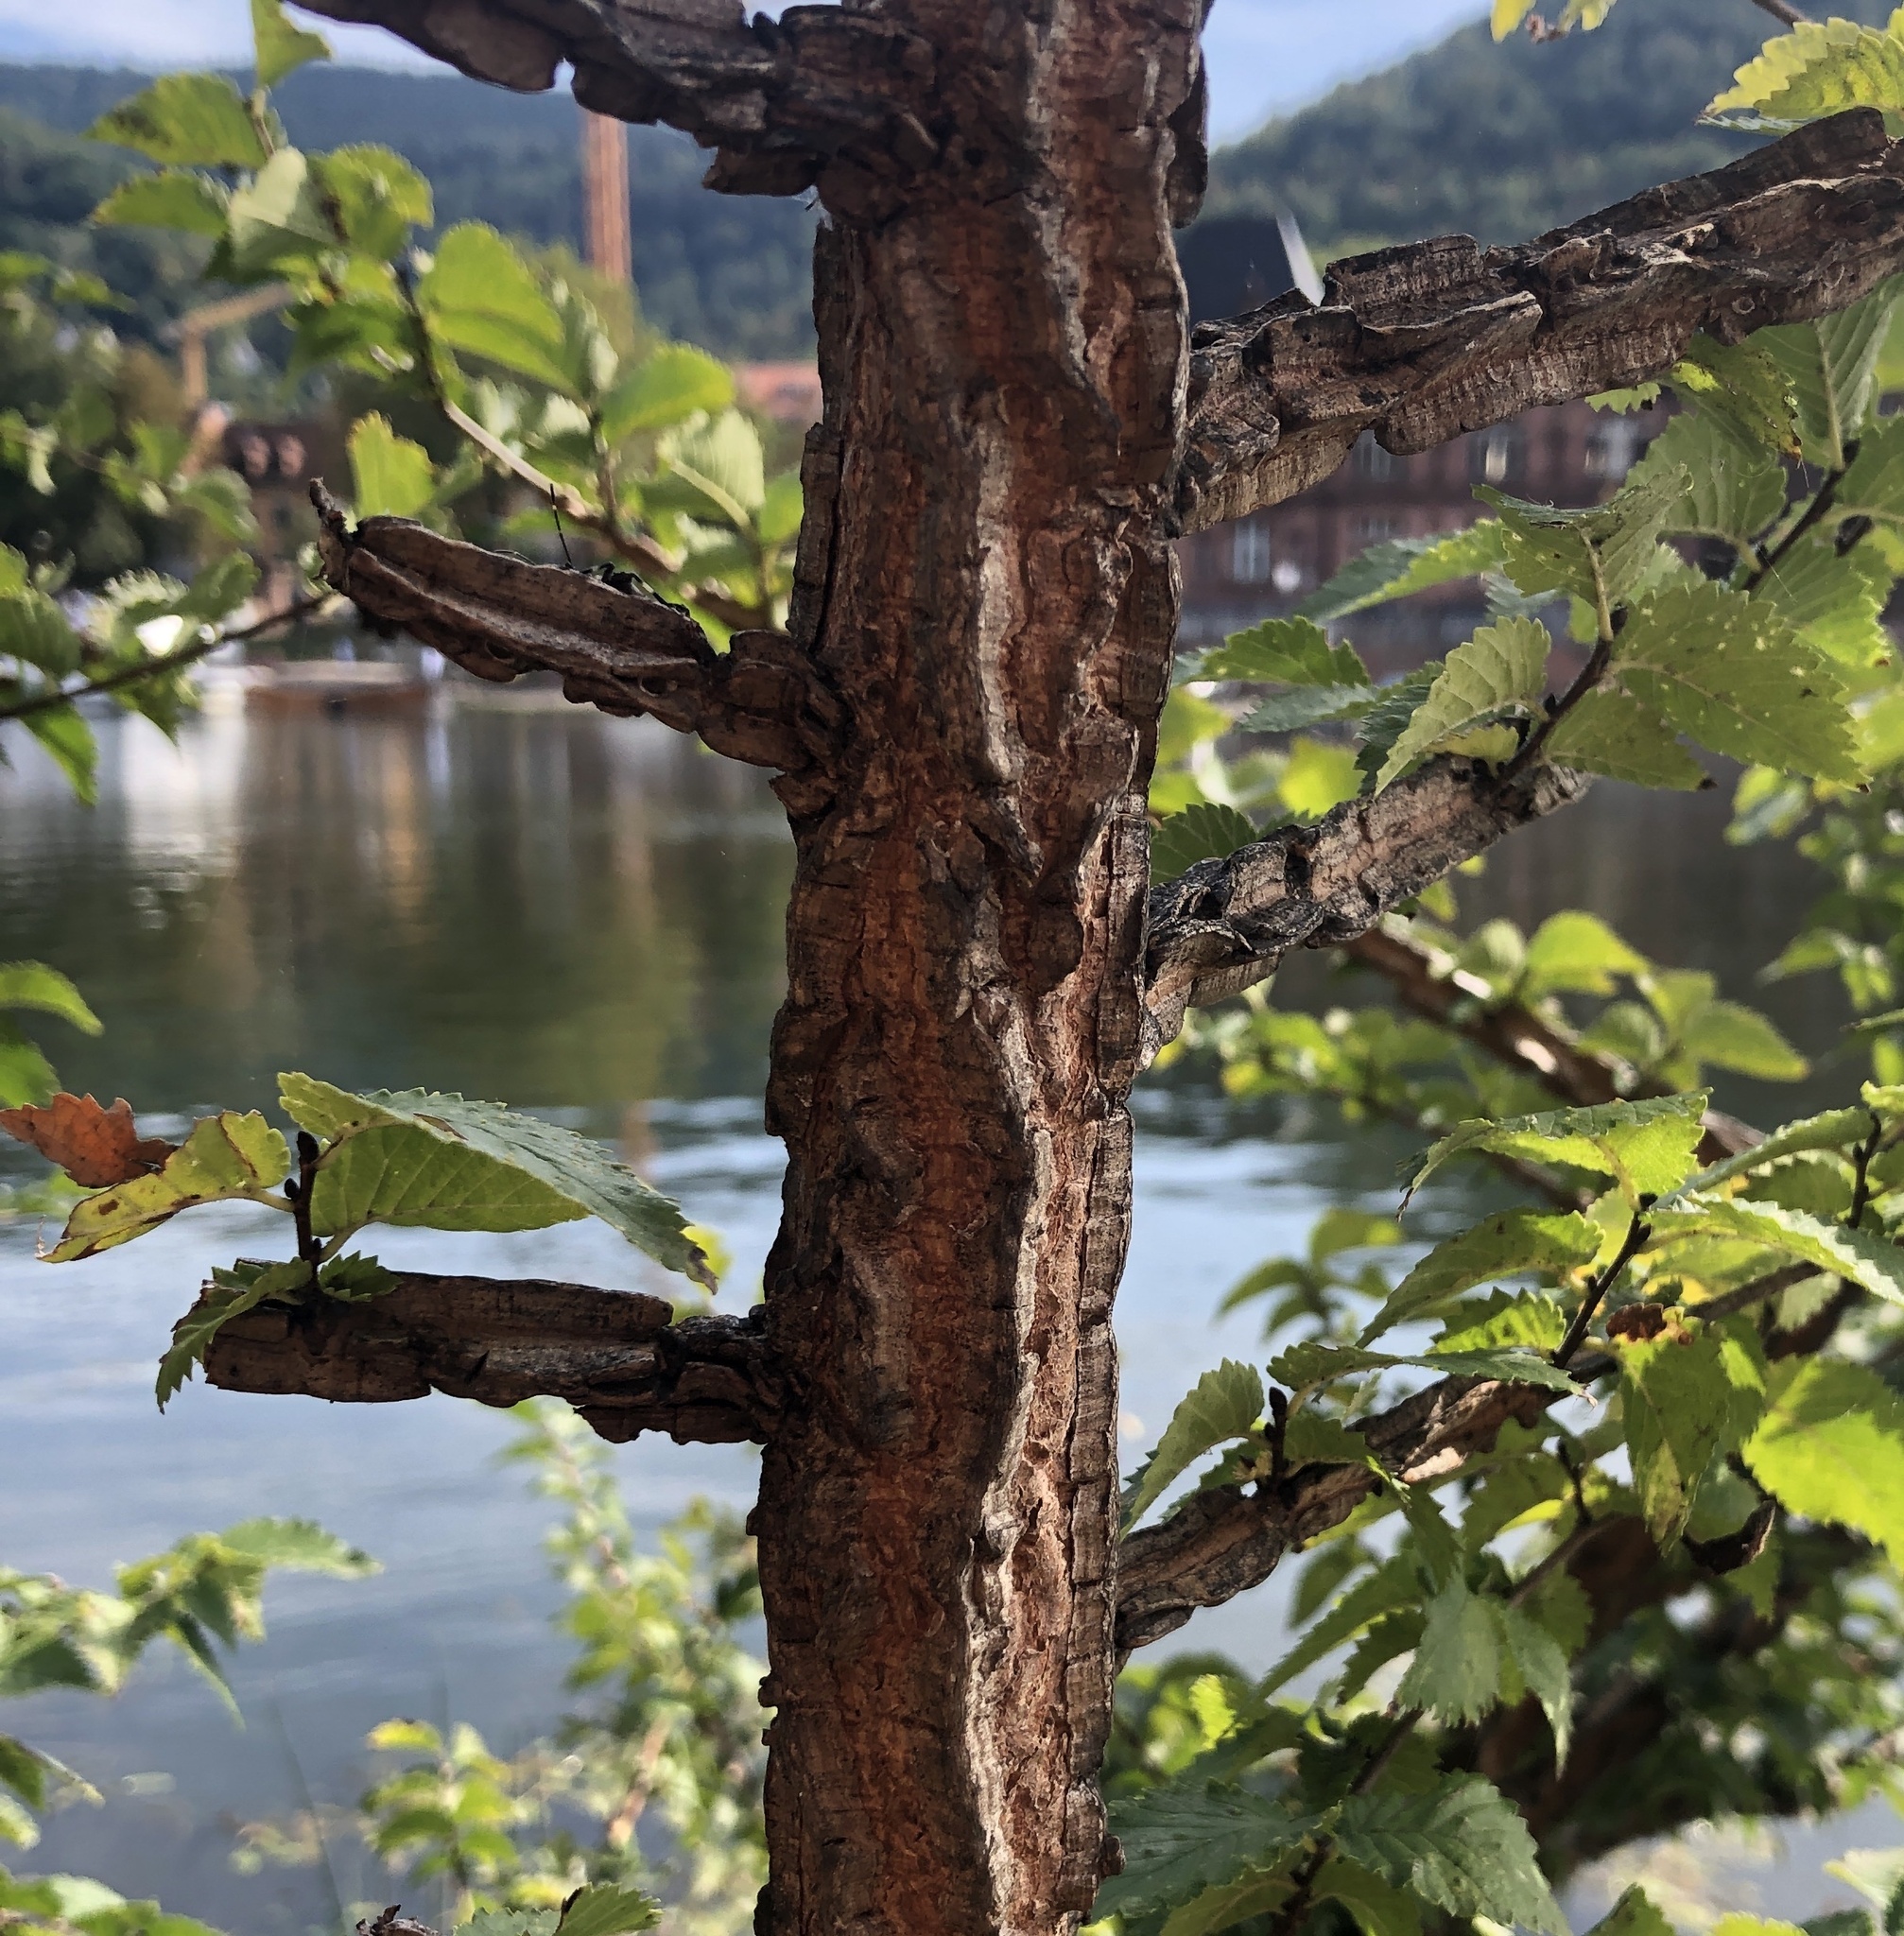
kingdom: Plantae
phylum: Tracheophyta
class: Magnoliopsida
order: Rosales
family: Ulmaceae
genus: Ulmus
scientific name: Ulmus minor
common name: Small-leaved elm
